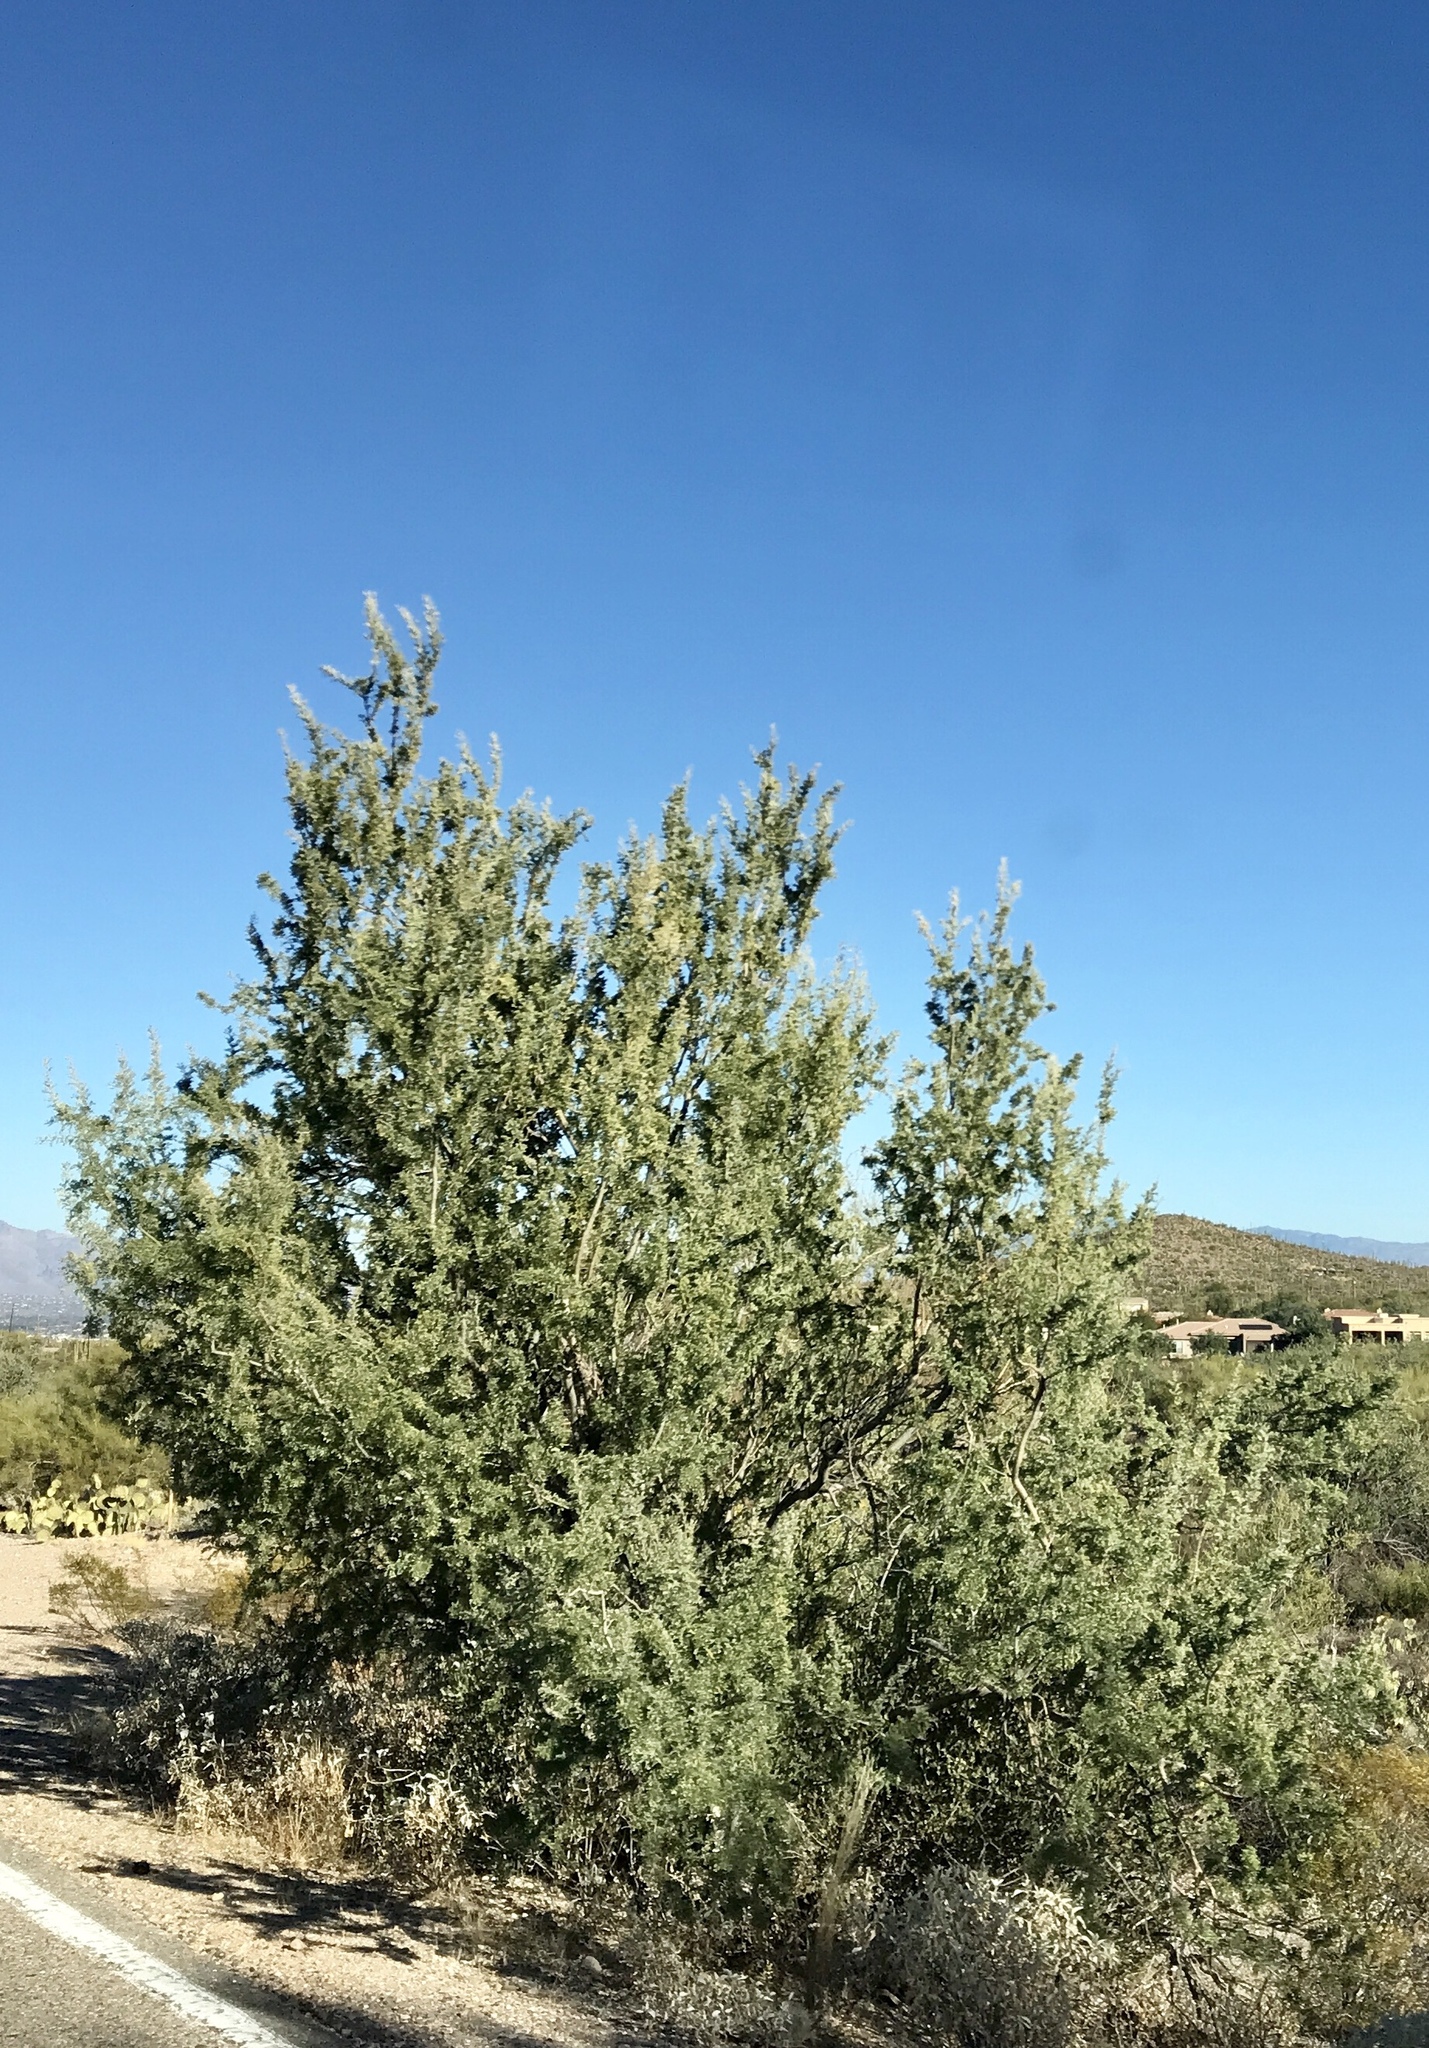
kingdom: Plantae
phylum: Tracheophyta
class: Magnoliopsida
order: Fabales
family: Fabaceae
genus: Olneya
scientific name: Olneya tesota
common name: Desert ironwood
